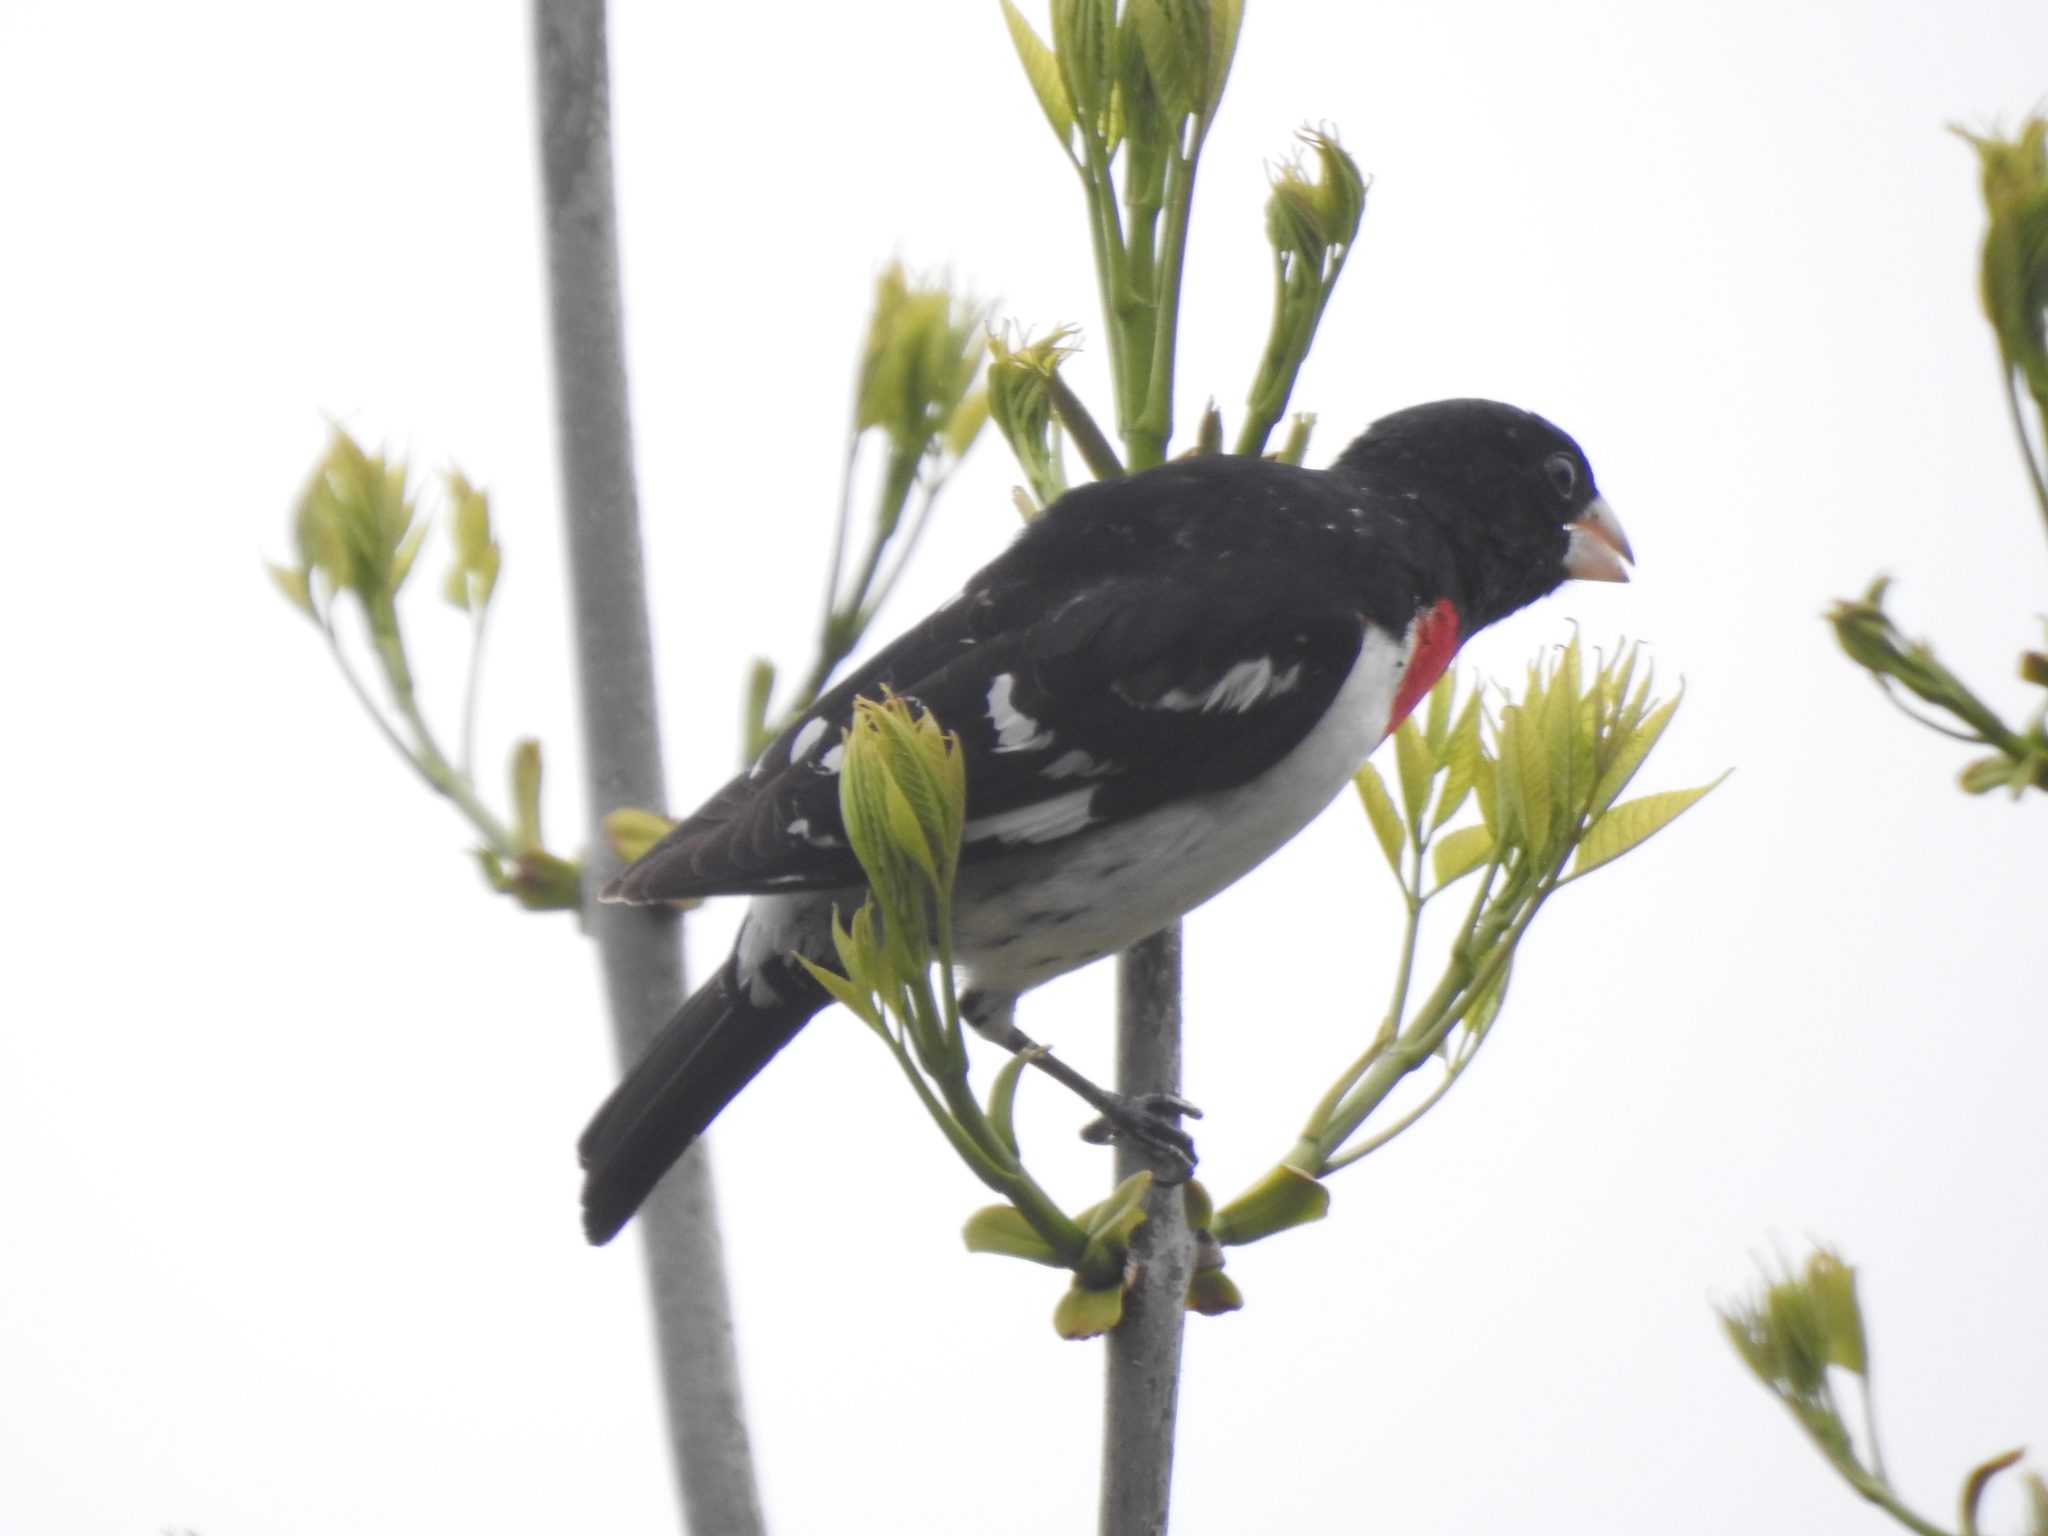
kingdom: Animalia
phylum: Chordata
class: Aves
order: Passeriformes
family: Cardinalidae
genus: Pheucticus
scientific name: Pheucticus ludovicianus
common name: Rose-breasted grosbeak
